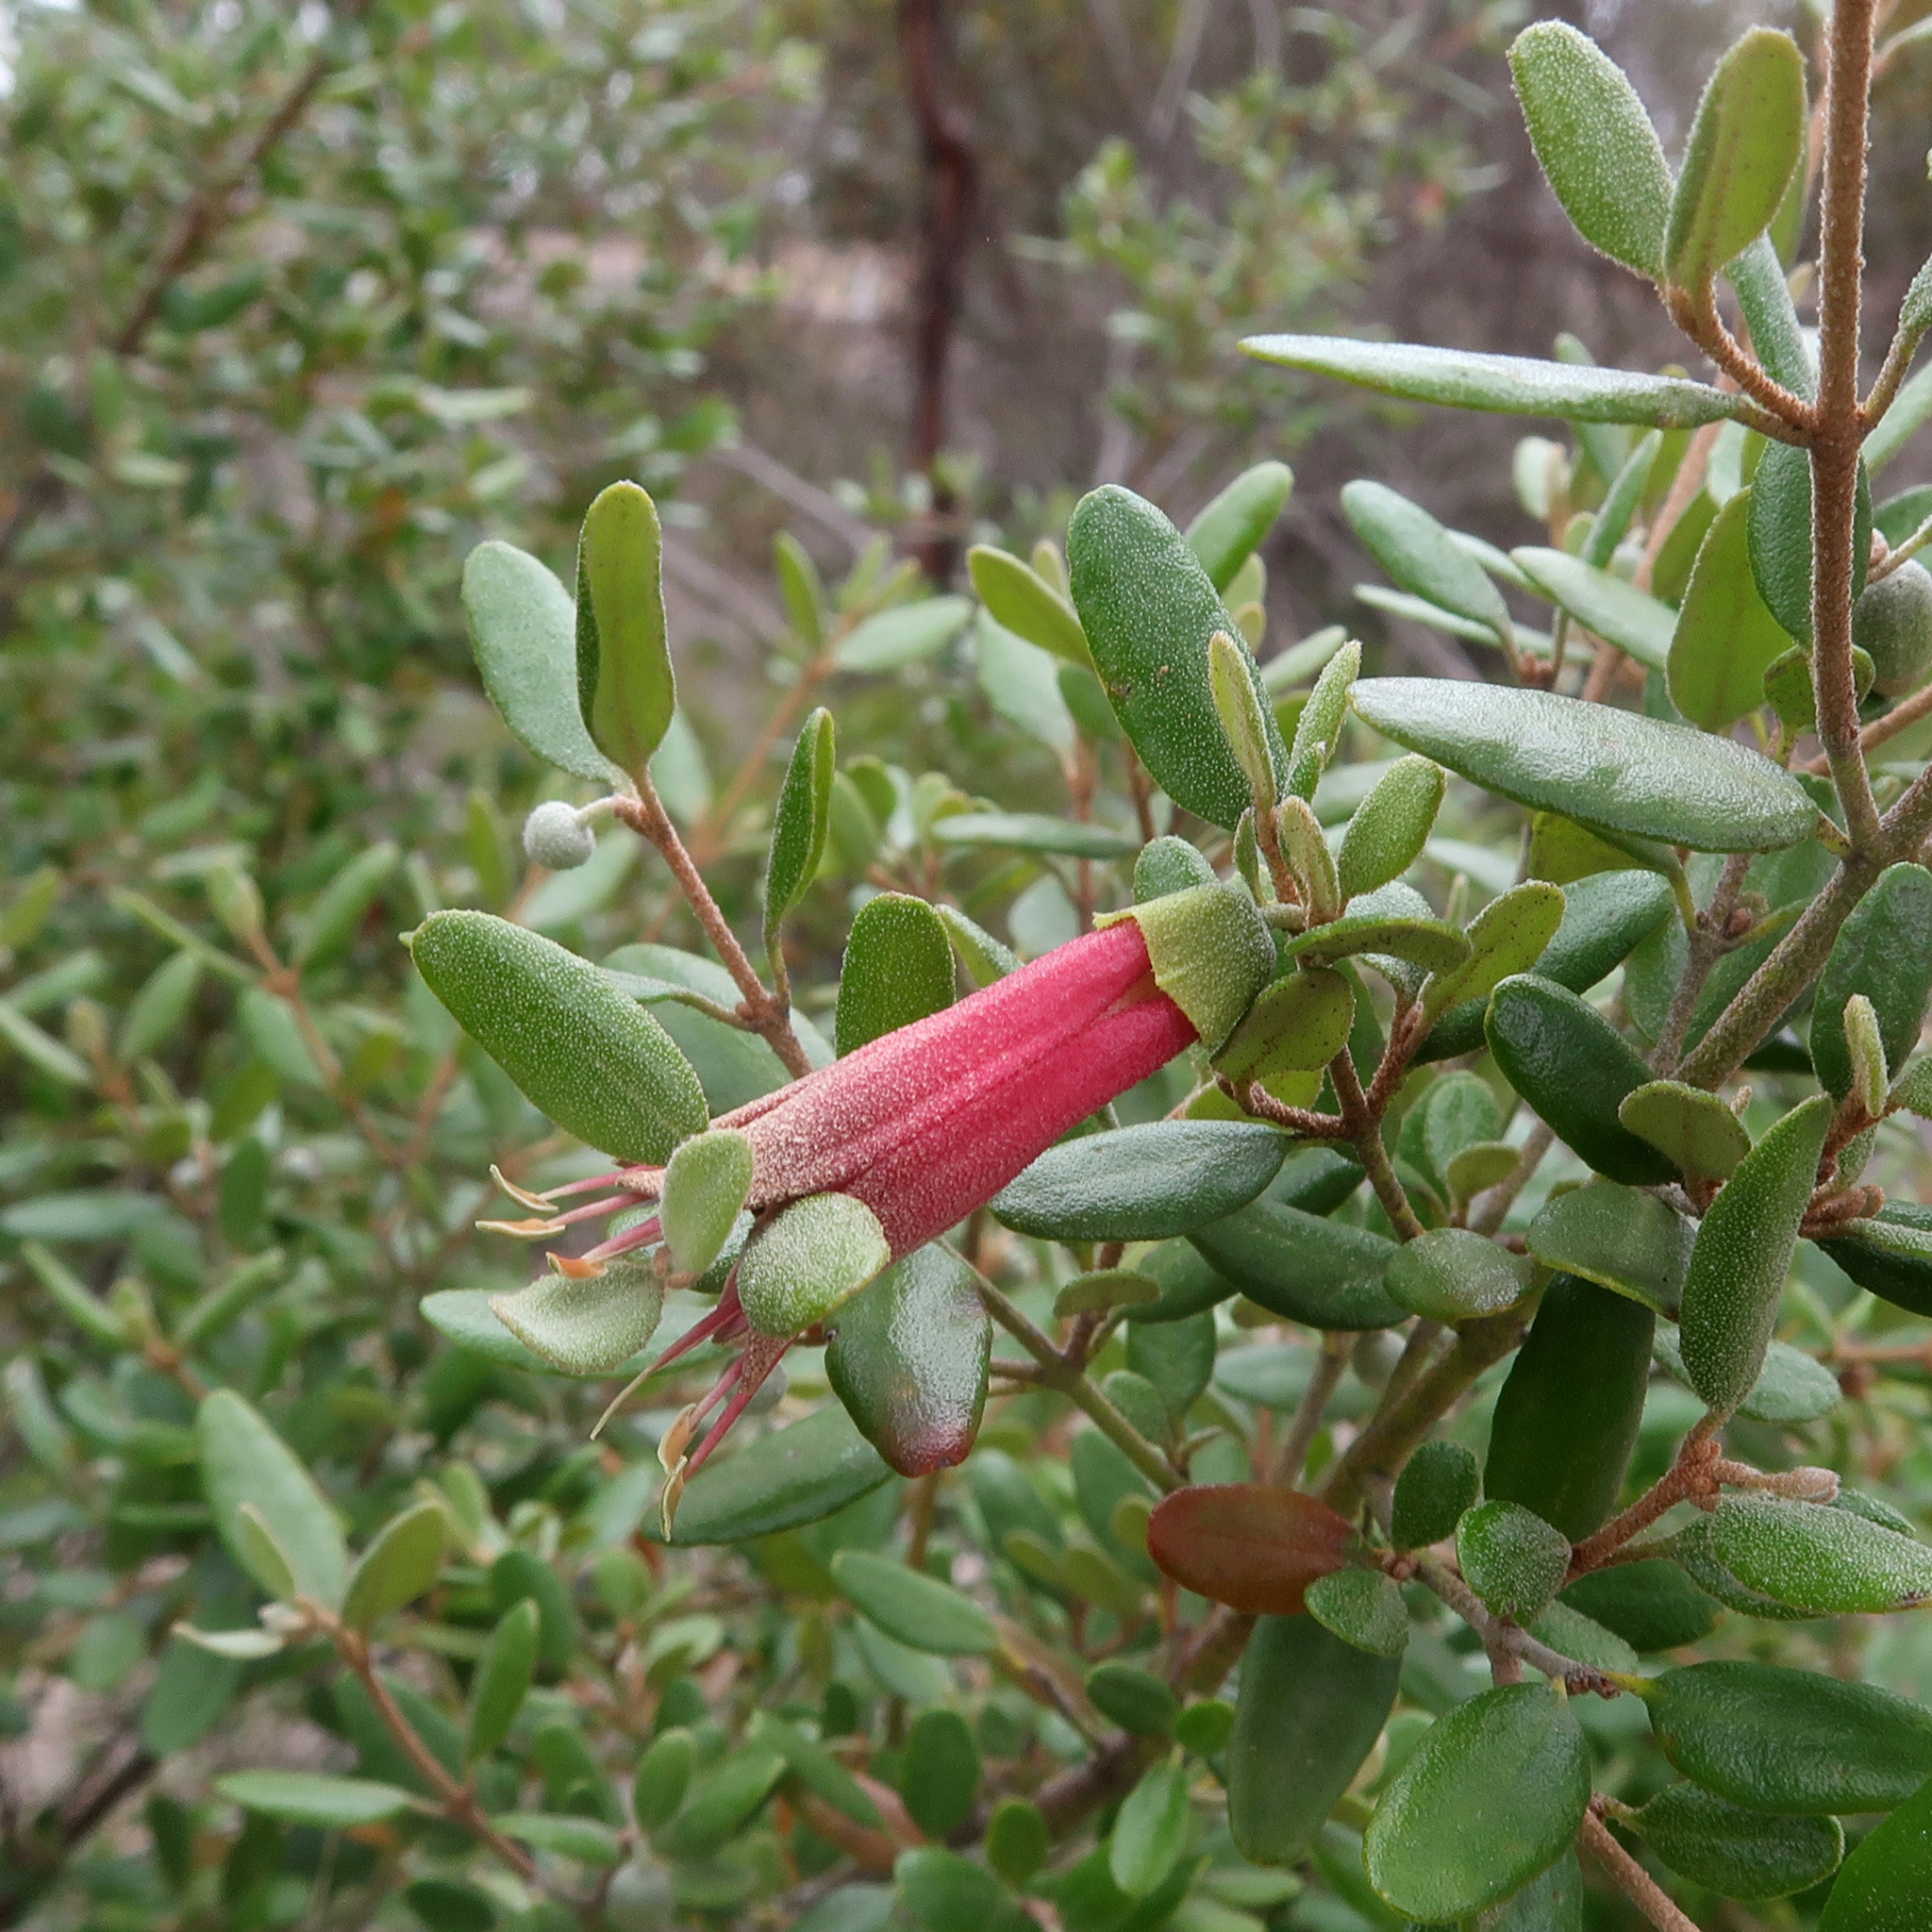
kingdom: Plantae
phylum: Tracheophyta
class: Magnoliopsida
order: Sapindales
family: Rutaceae
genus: Correa
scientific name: Correa glabra
